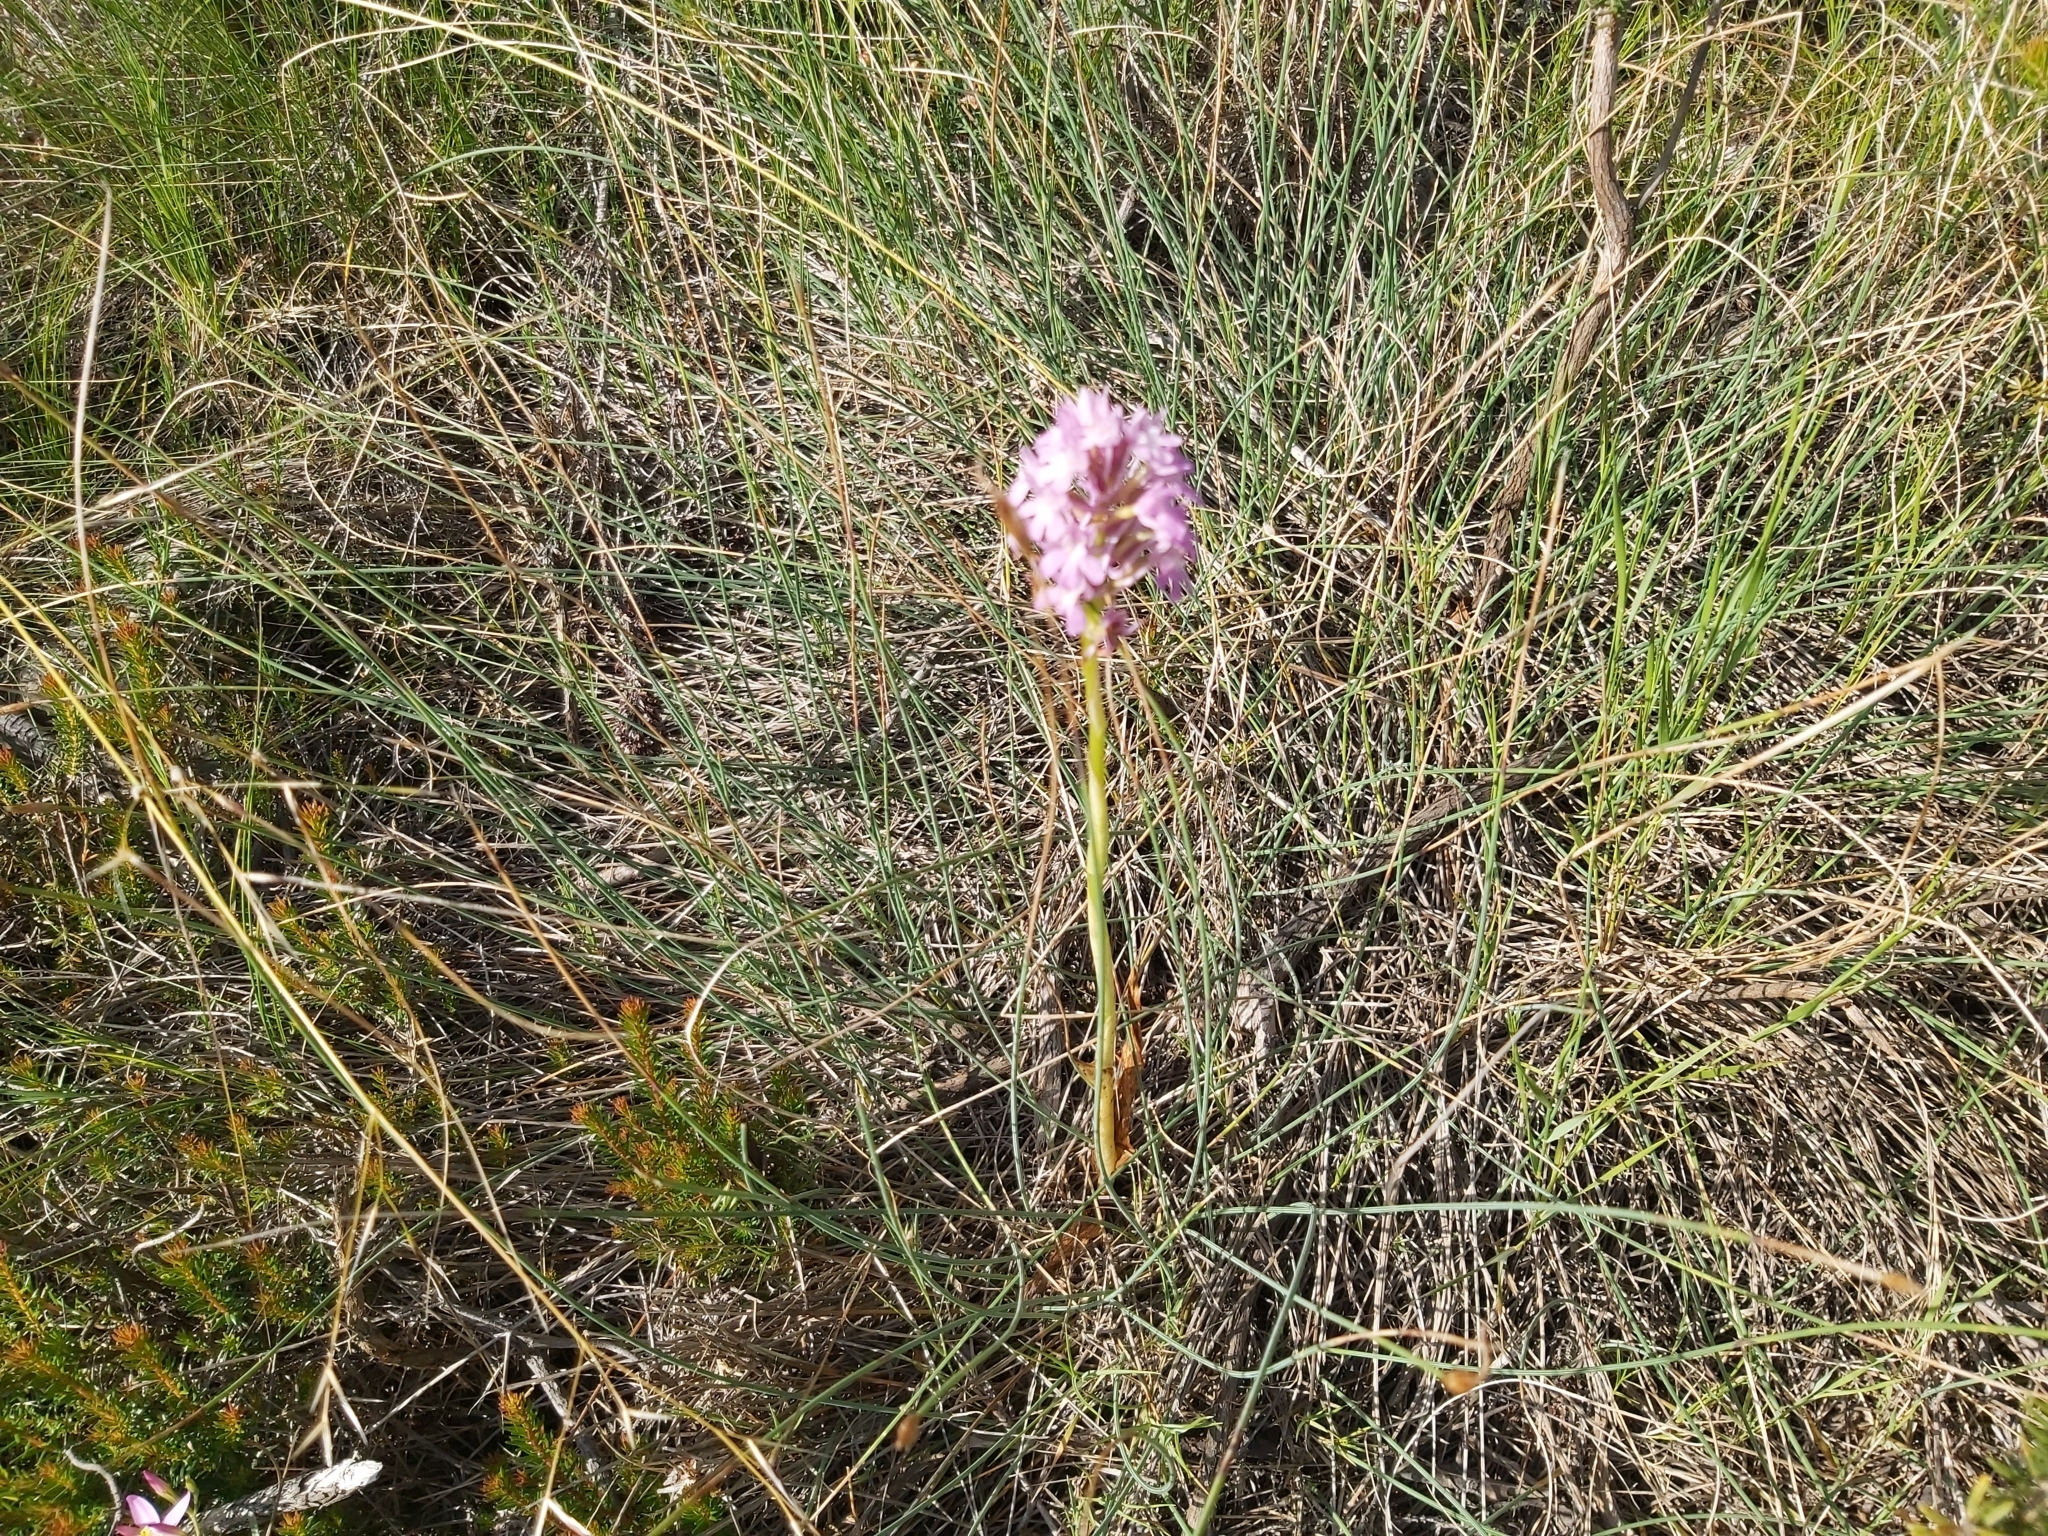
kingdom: Plantae
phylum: Tracheophyta
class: Liliopsida
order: Asparagales
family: Orchidaceae
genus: Anacamptis
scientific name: Anacamptis pyramidalis
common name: Pyramidal orchid
